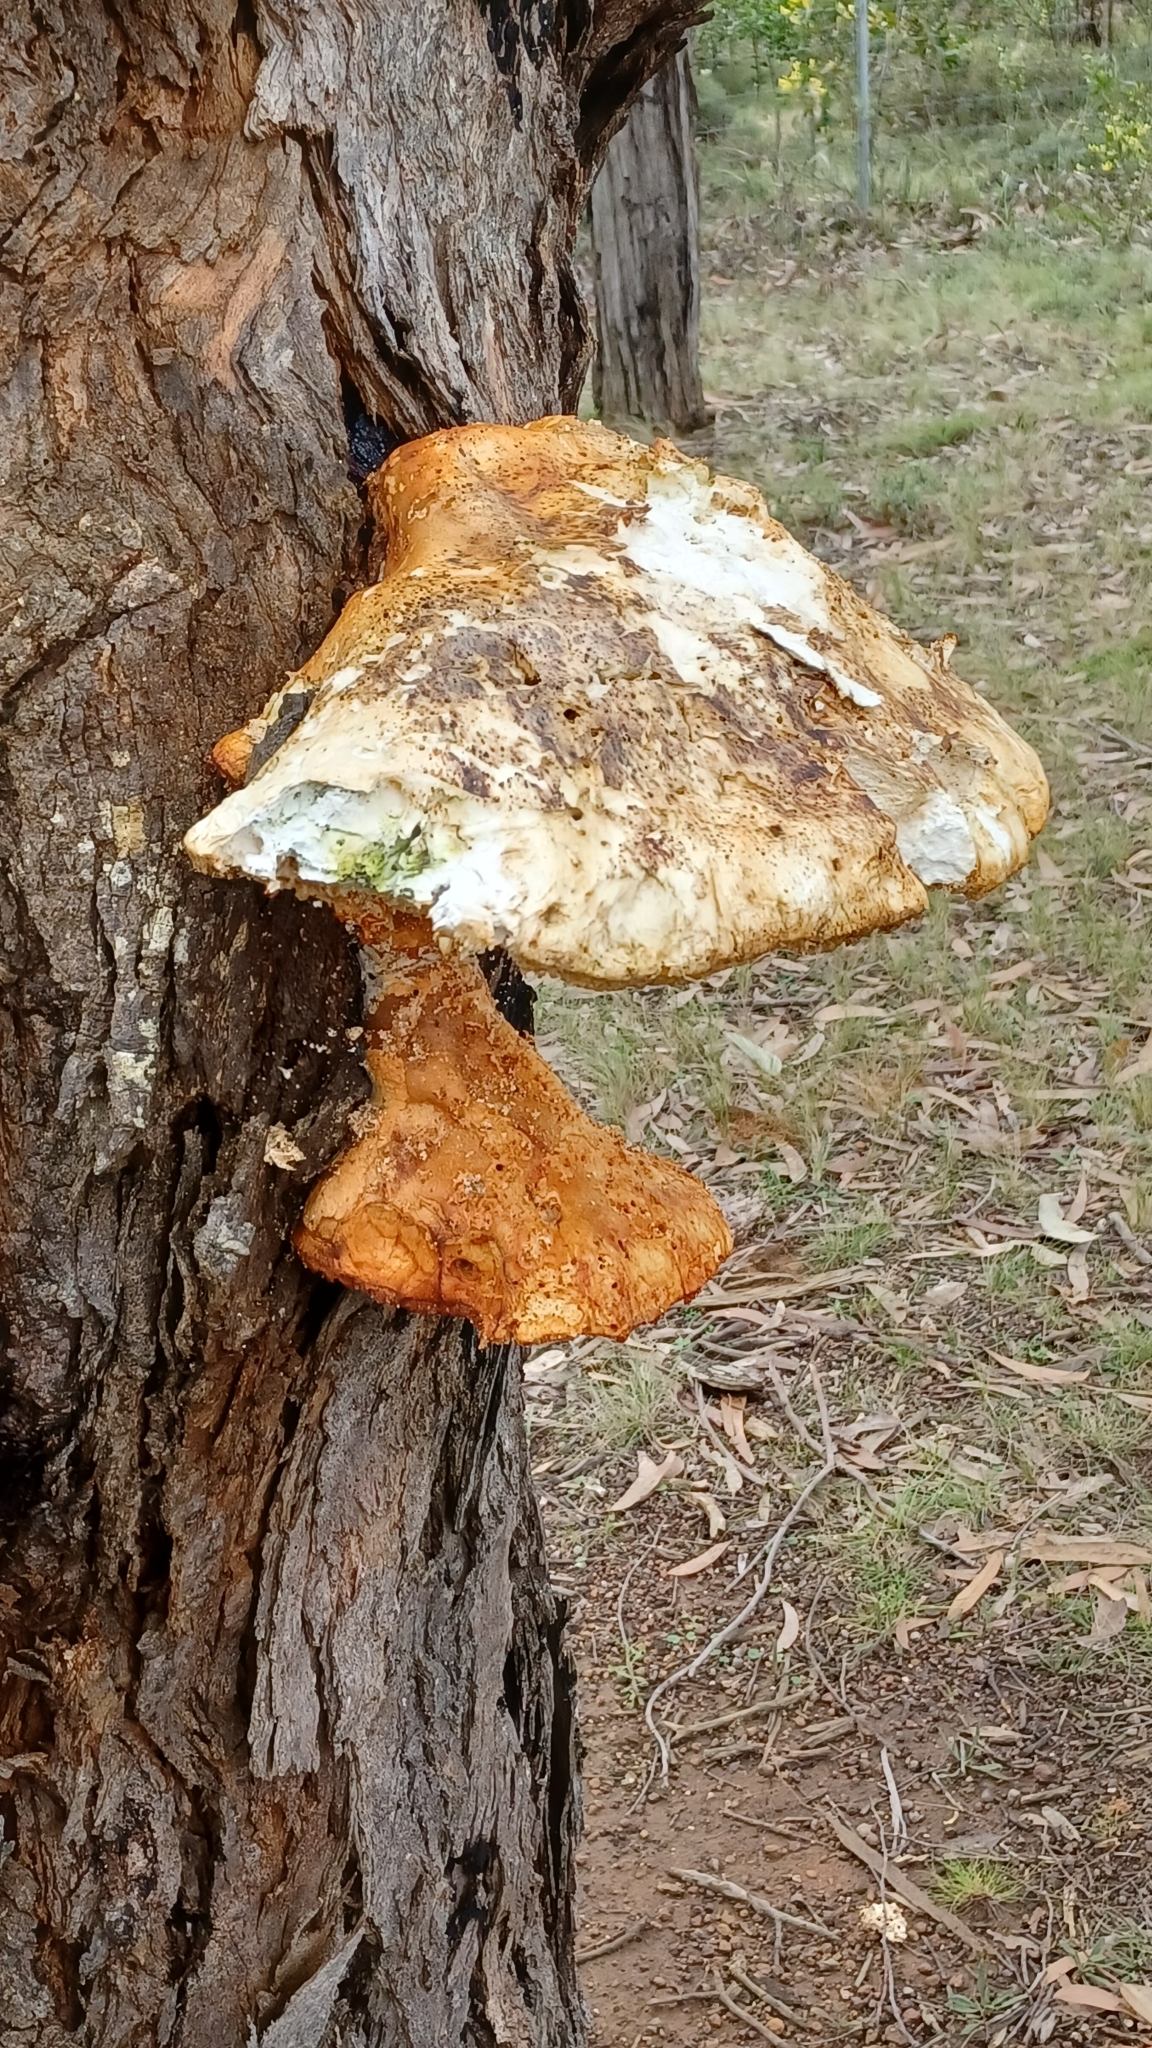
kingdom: Fungi
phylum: Basidiomycota
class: Agaricomycetes
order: Polyporales
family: Laetiporaceae
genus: Laetiporus
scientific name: Laetiporus portentosus
